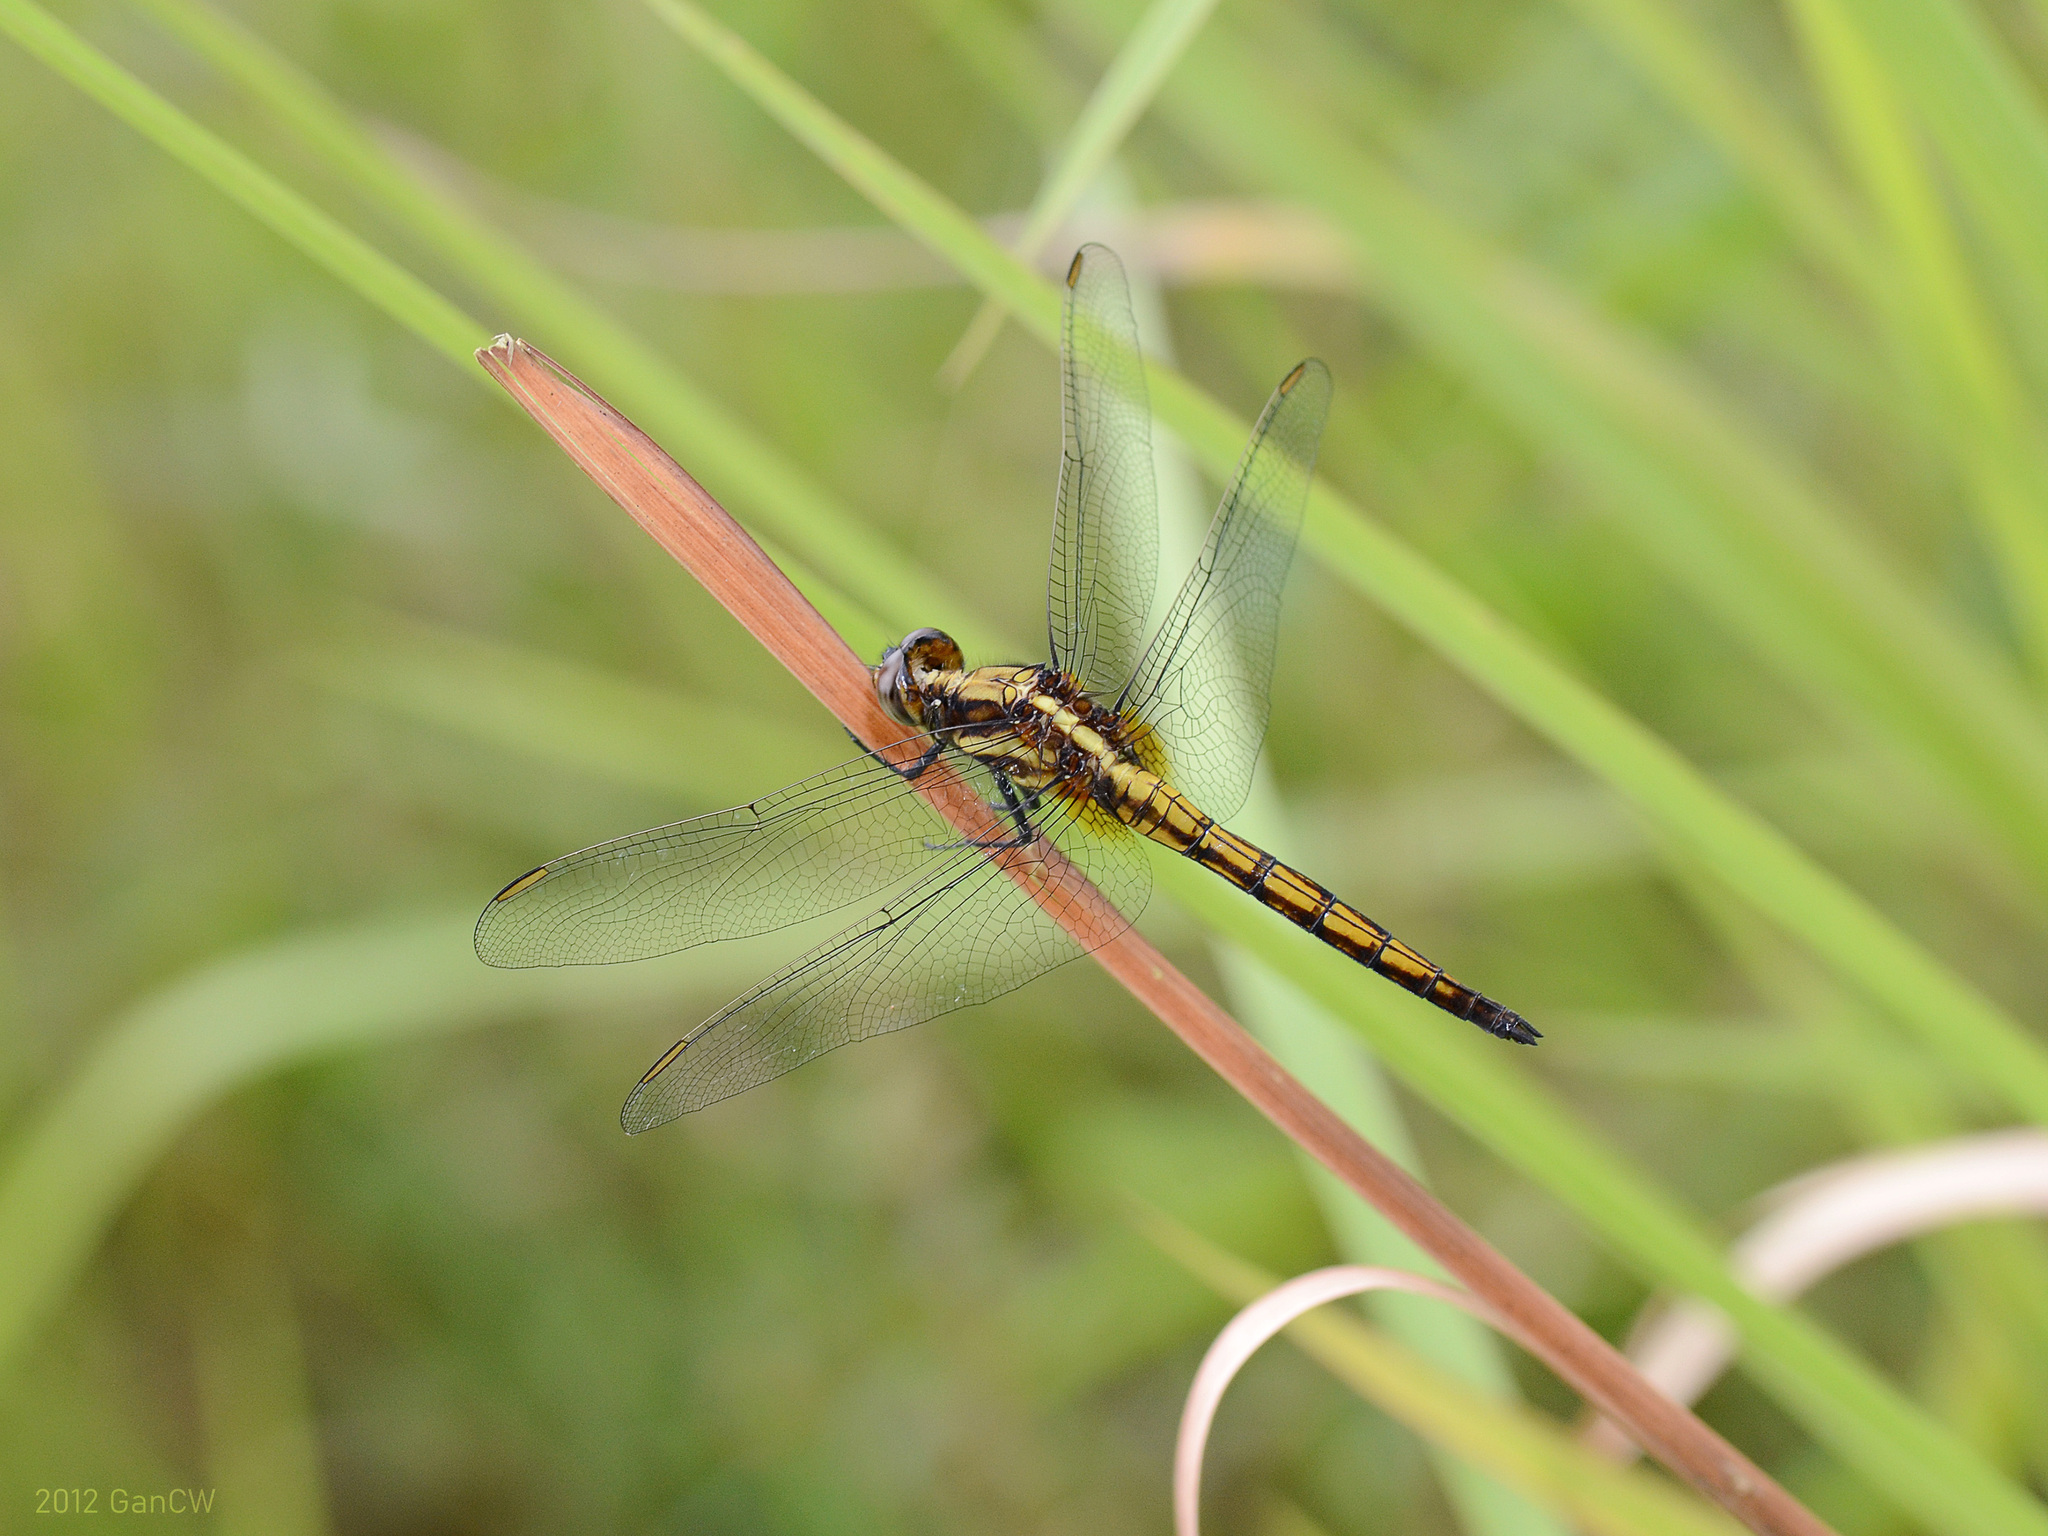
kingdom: Animalia
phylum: Arthropoda
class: Insecta
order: Odonata
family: Libellulidae
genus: Orthetrum
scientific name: Orthetrum glaucum
